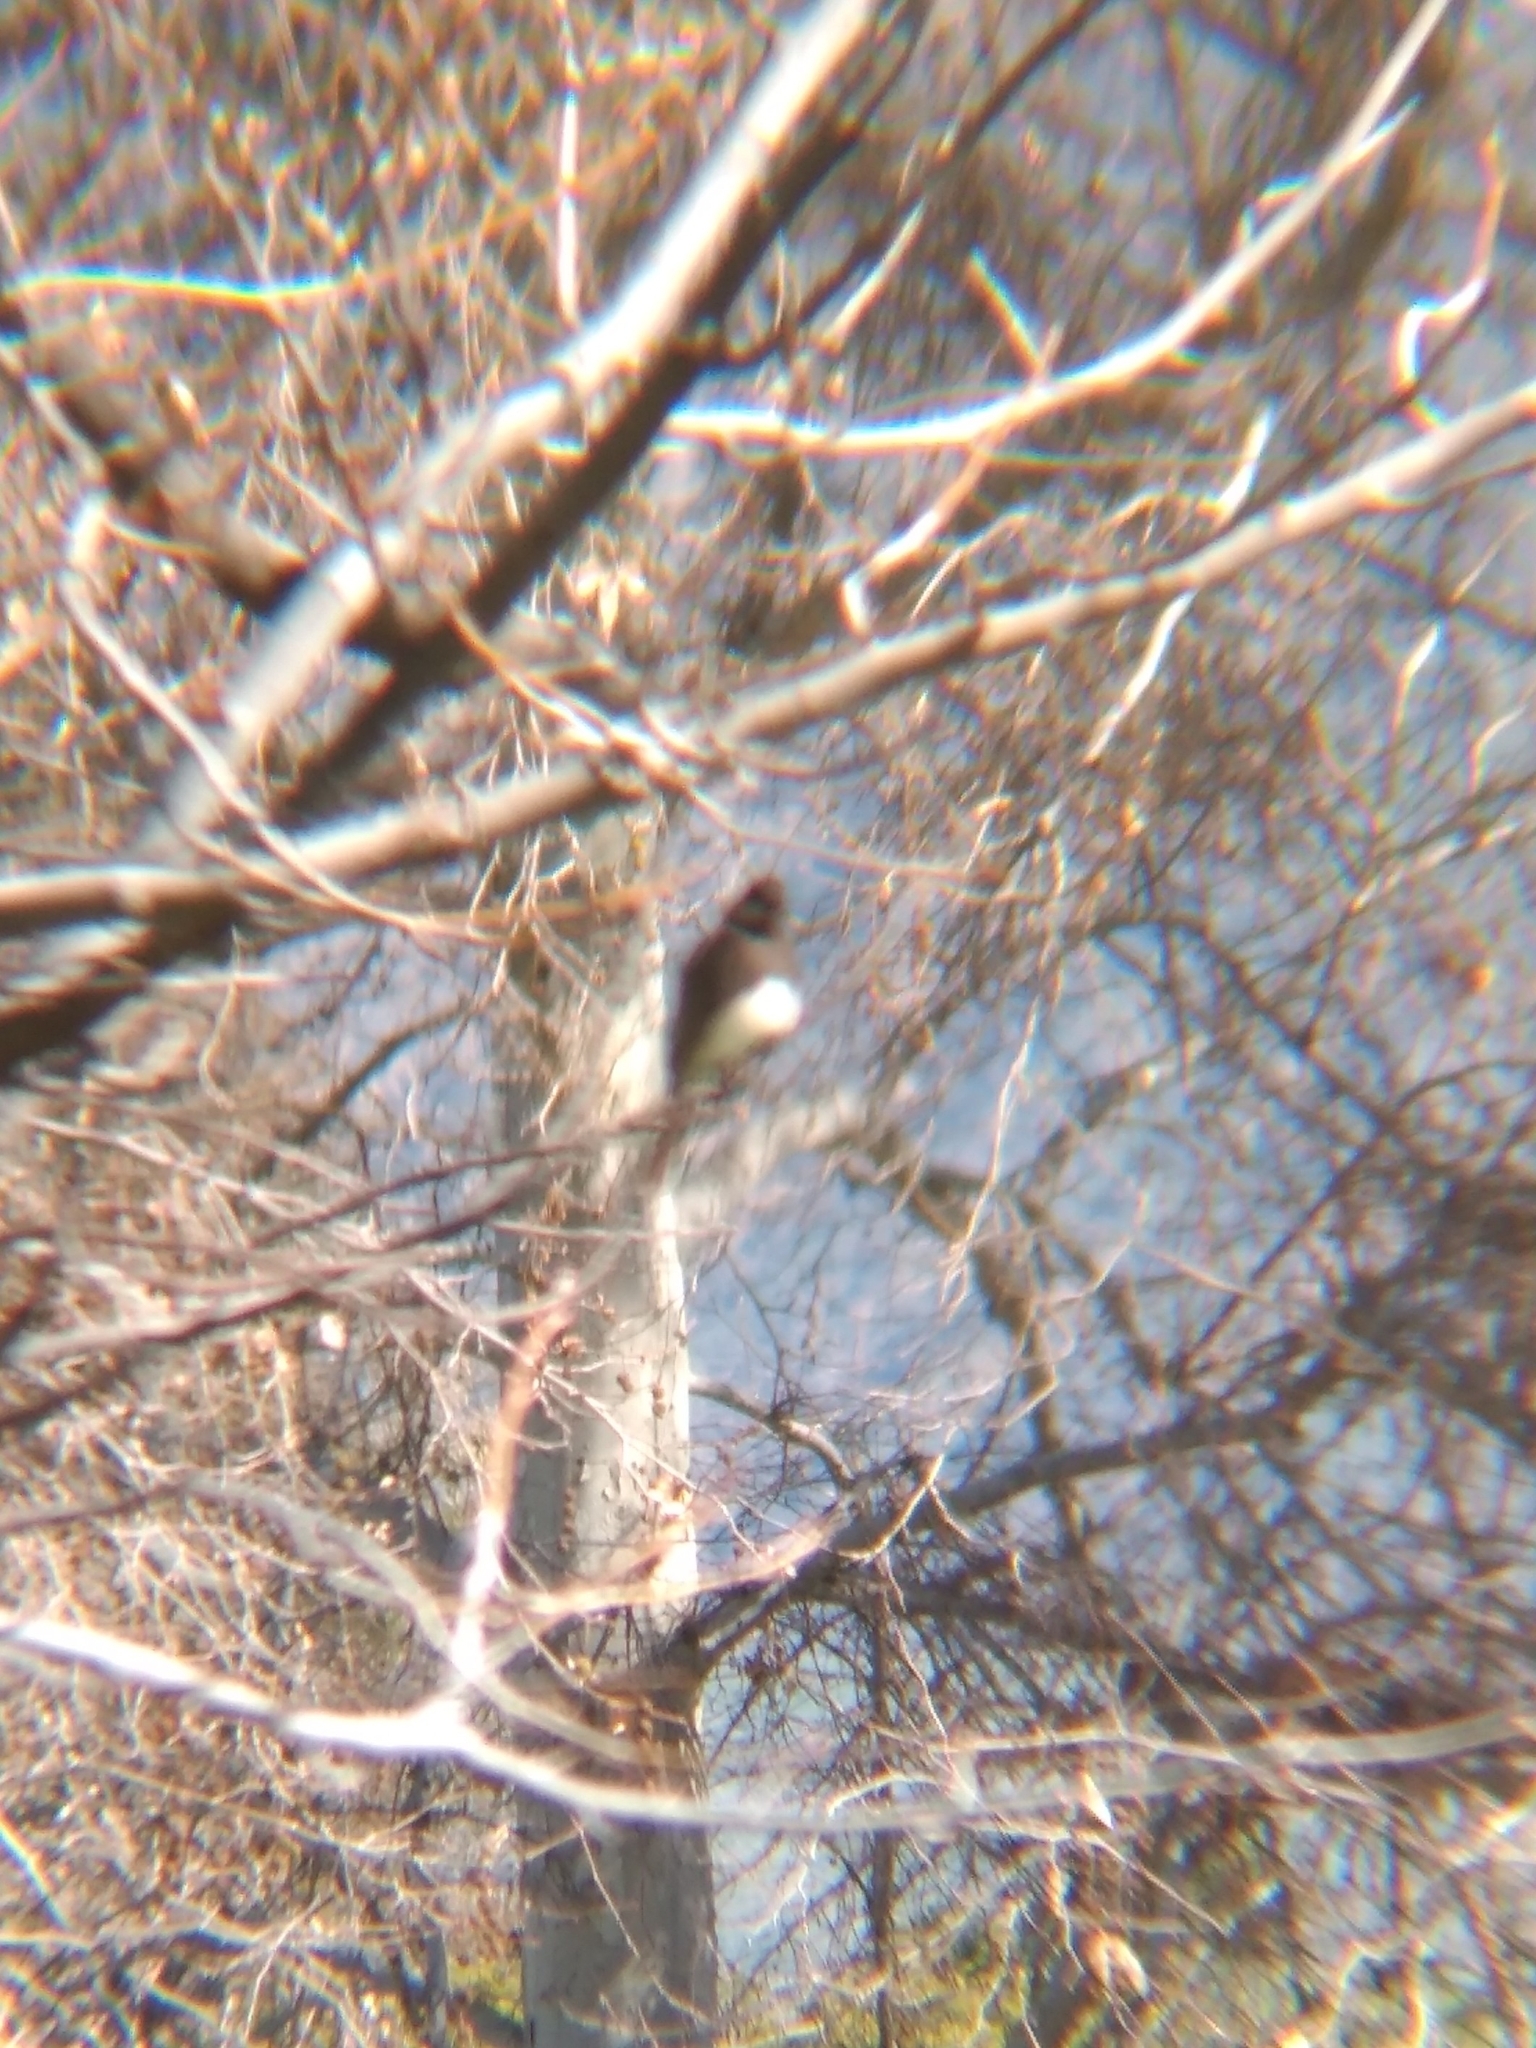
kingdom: Animalia
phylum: Chordata
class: Aves
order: Passeriformes
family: Tyrannidae
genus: Sayornis
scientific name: Sayornis nigricans
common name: Black phoebe
